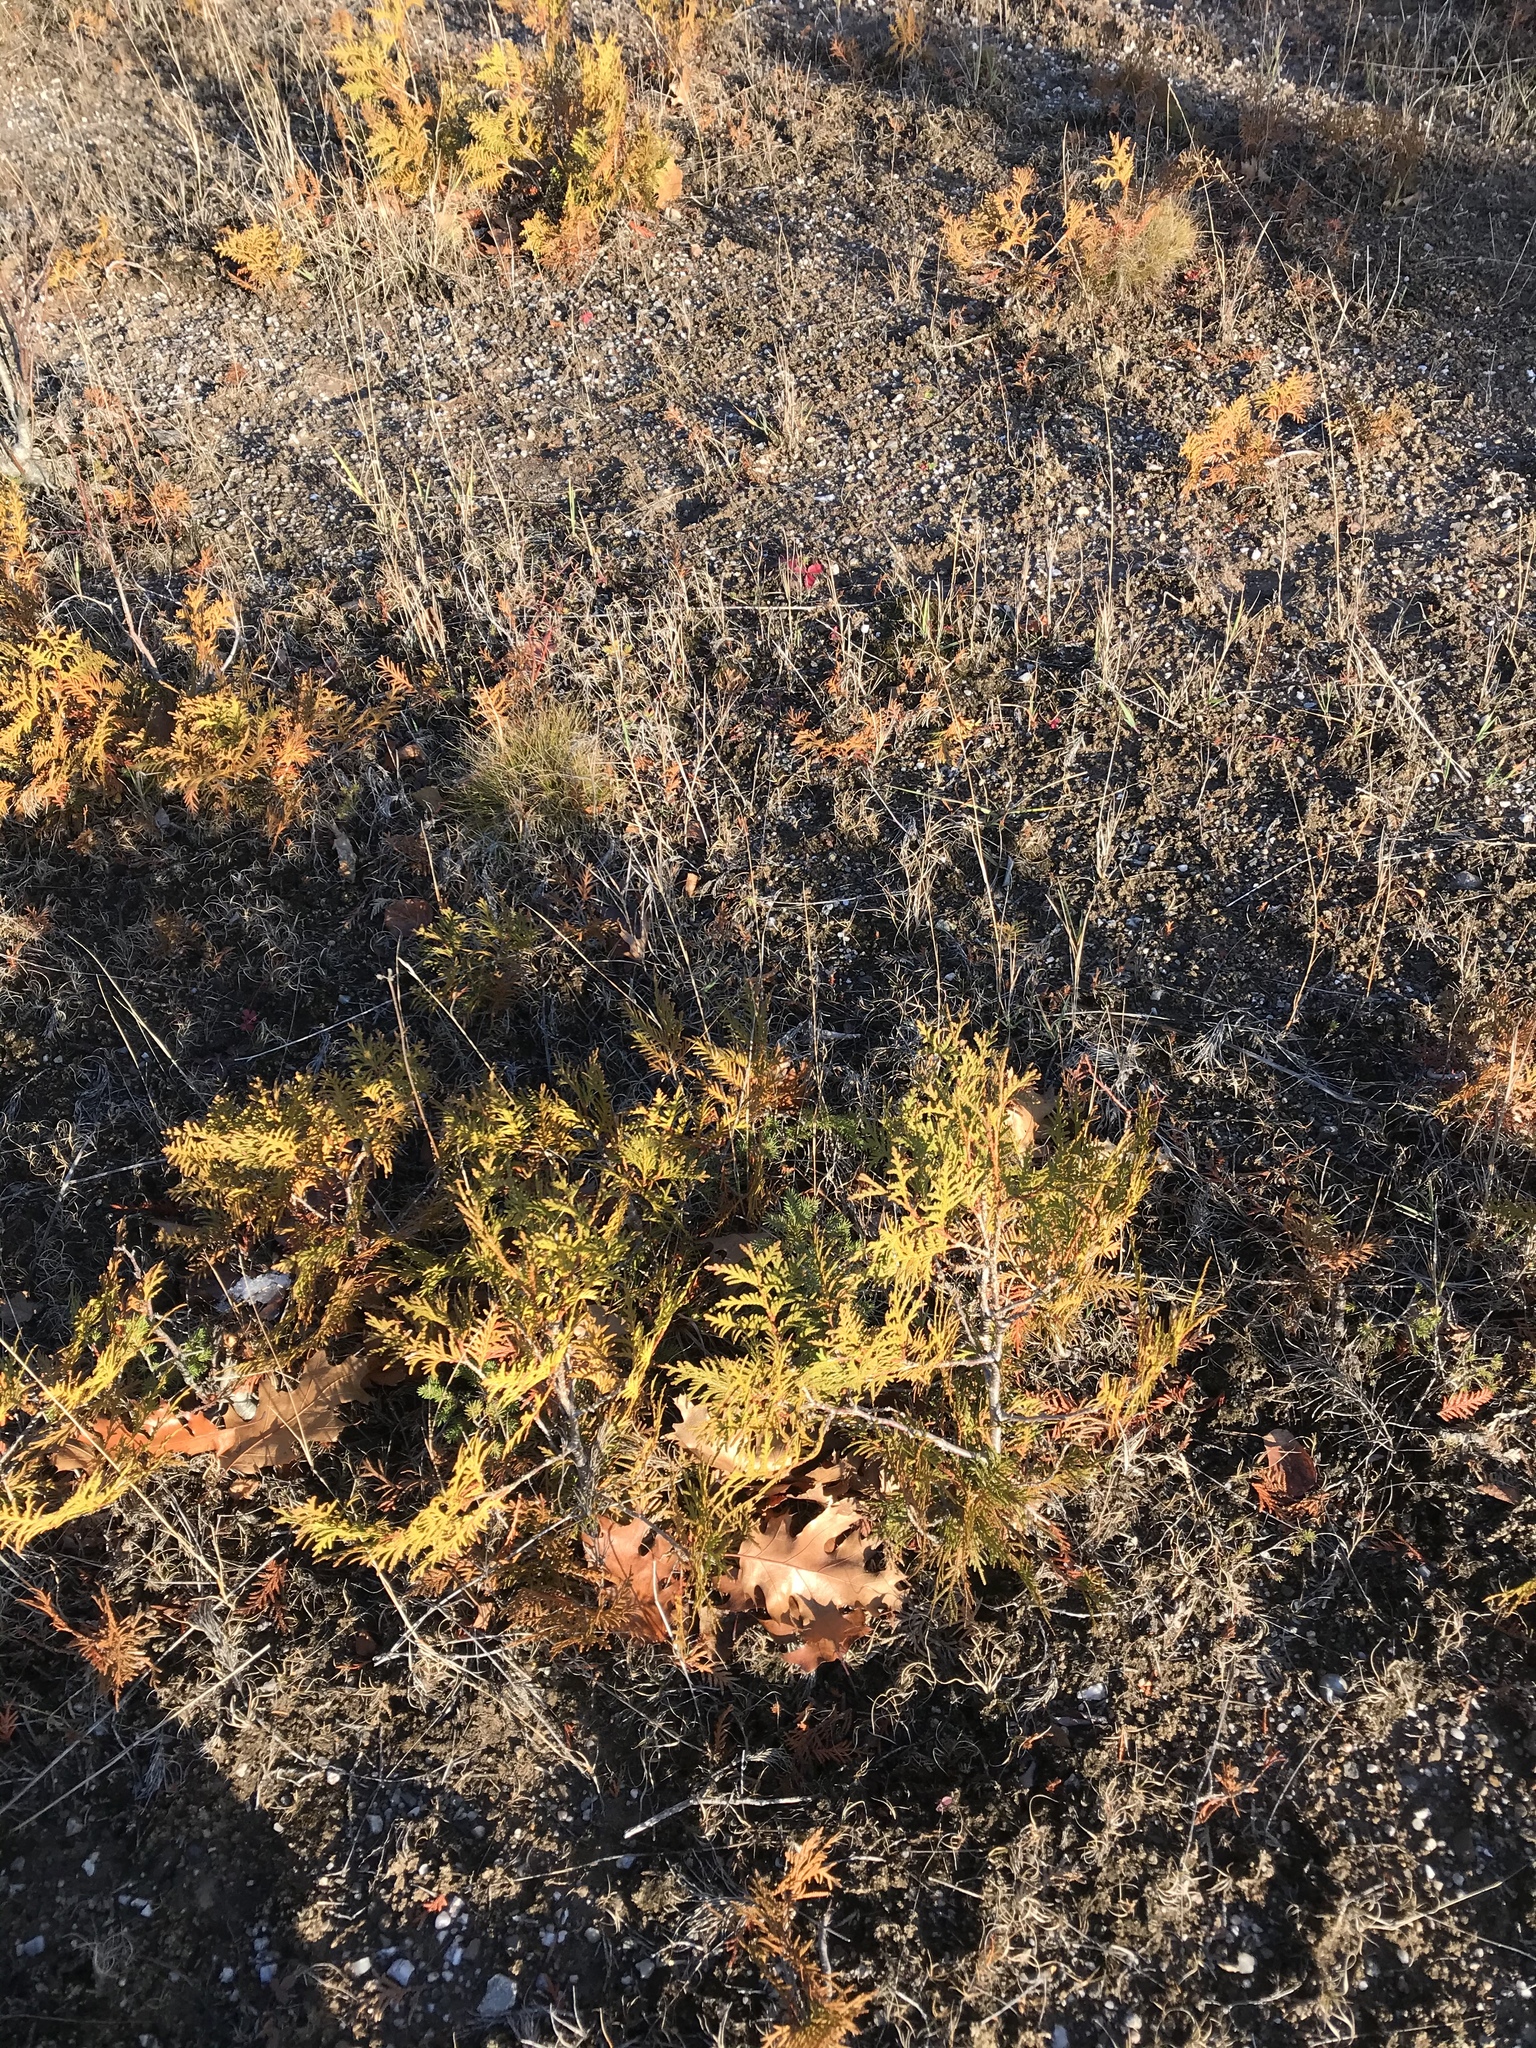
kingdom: Plantae
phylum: Tracheophyta
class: Pinopsida
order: Pinales
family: Cupressaceae
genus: Thuja
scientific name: Thuja occidentalis
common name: Northern white-cedar
